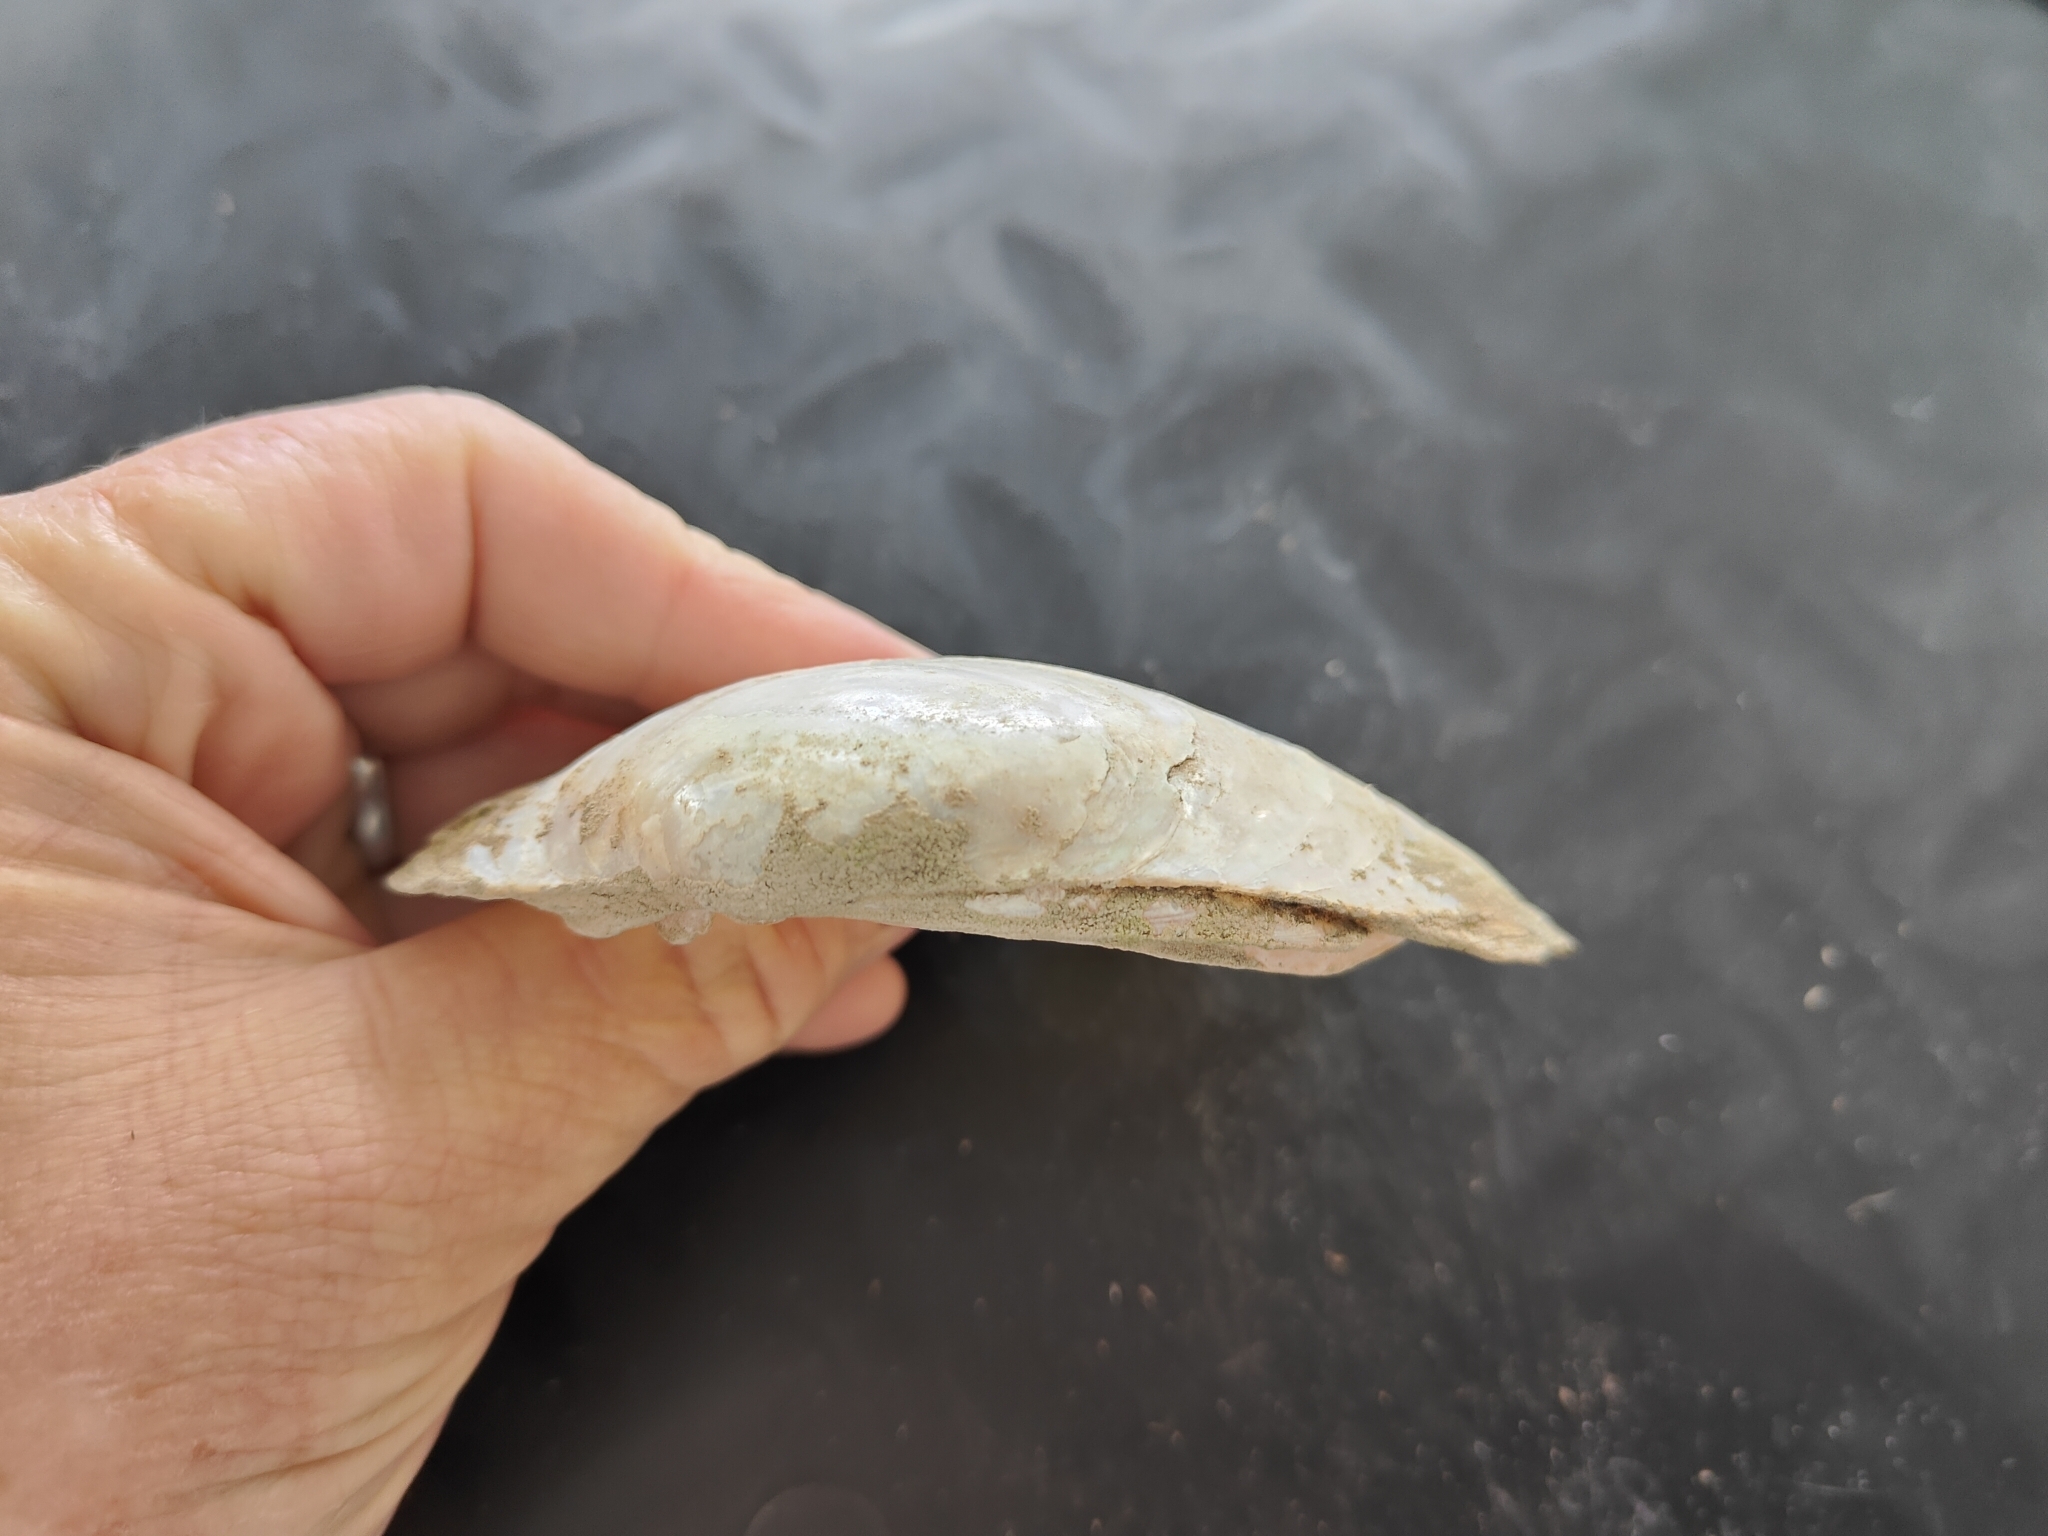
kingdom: Animalia
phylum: Mollusca
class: Bivalvia
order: Unionida
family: Unionidae
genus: Lampsilis
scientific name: Lampsilis cardium
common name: Plain pocketbook
